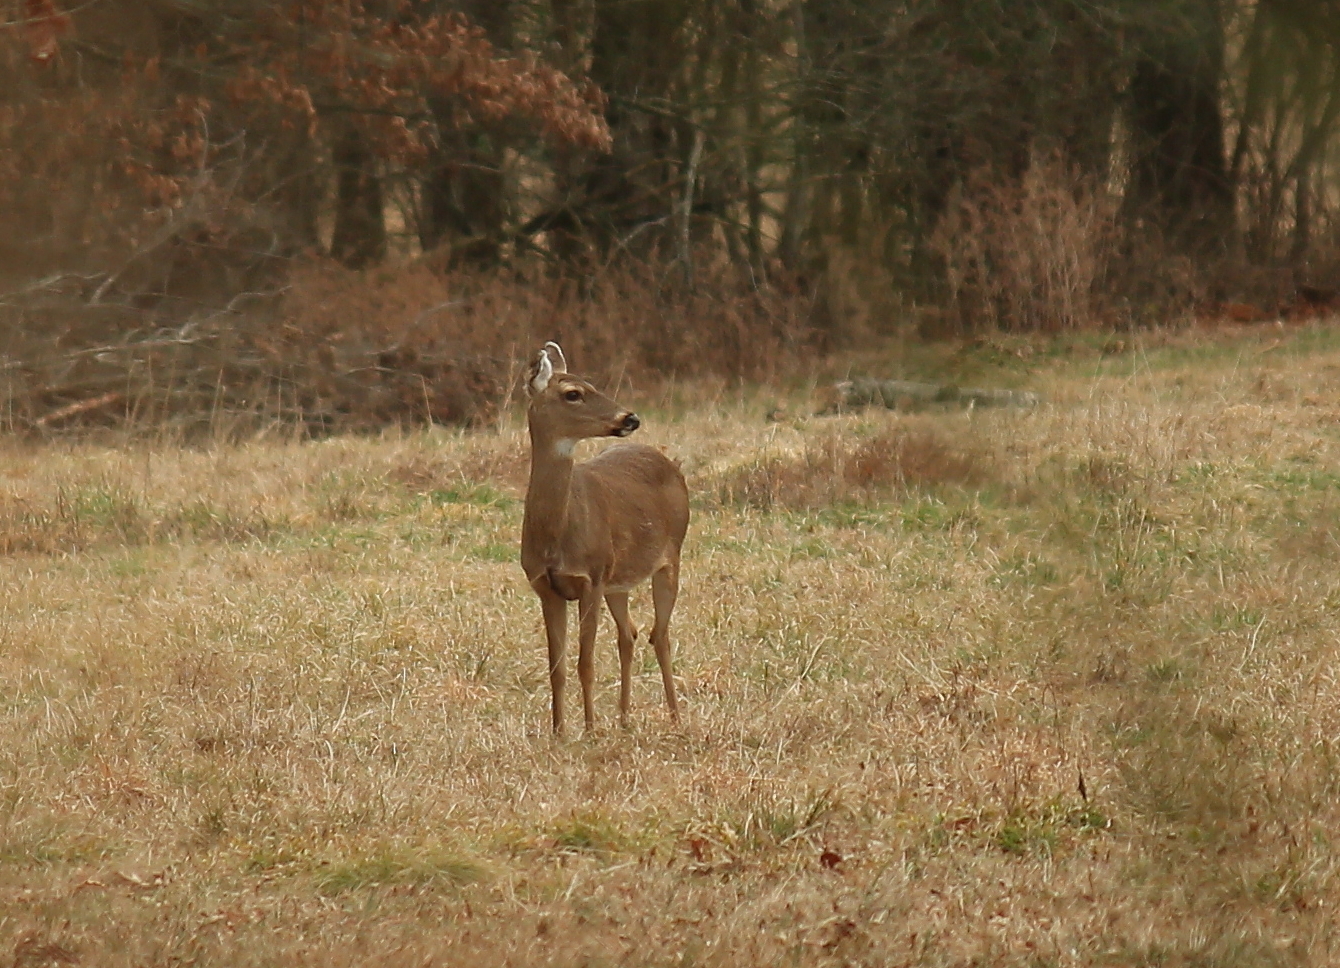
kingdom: Animalia
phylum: Chordata
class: Mammalia
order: Artiodactyla
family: Cervidae
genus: Odocoileus
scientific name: Odocoileus virginianus
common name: White-tailed deer
